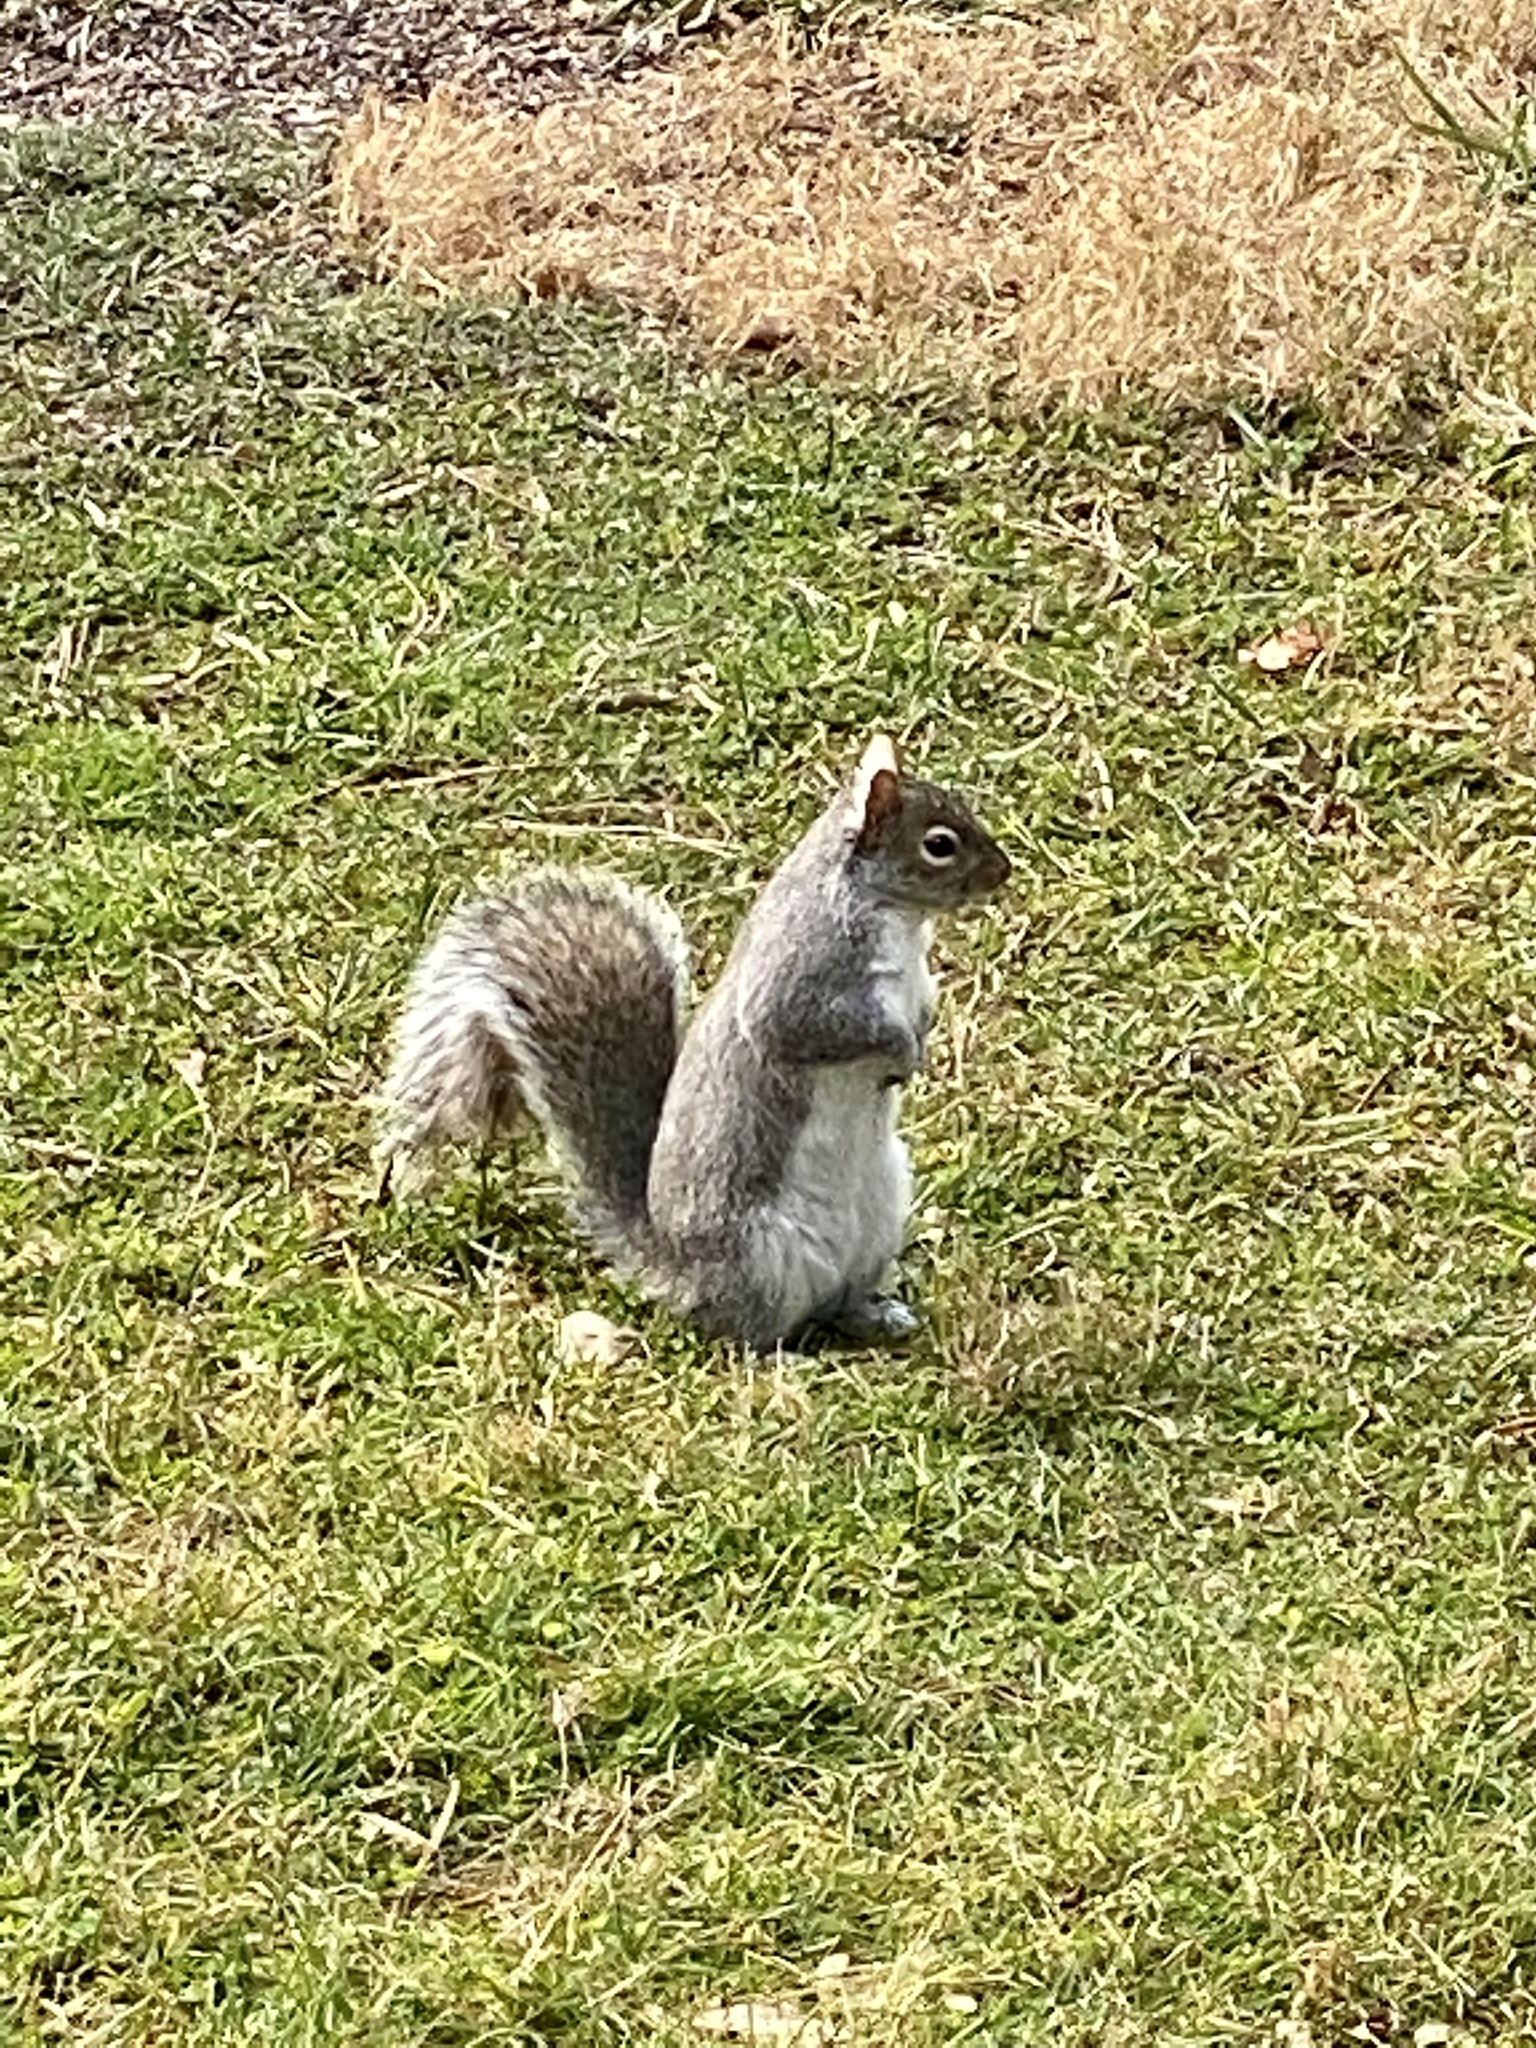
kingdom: Animalia
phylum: Chordata
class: Mammalia
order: Rodentia
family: Sciuridae
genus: Sciurus
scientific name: Sciurus carolinensis
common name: Eastern gray squirrel
